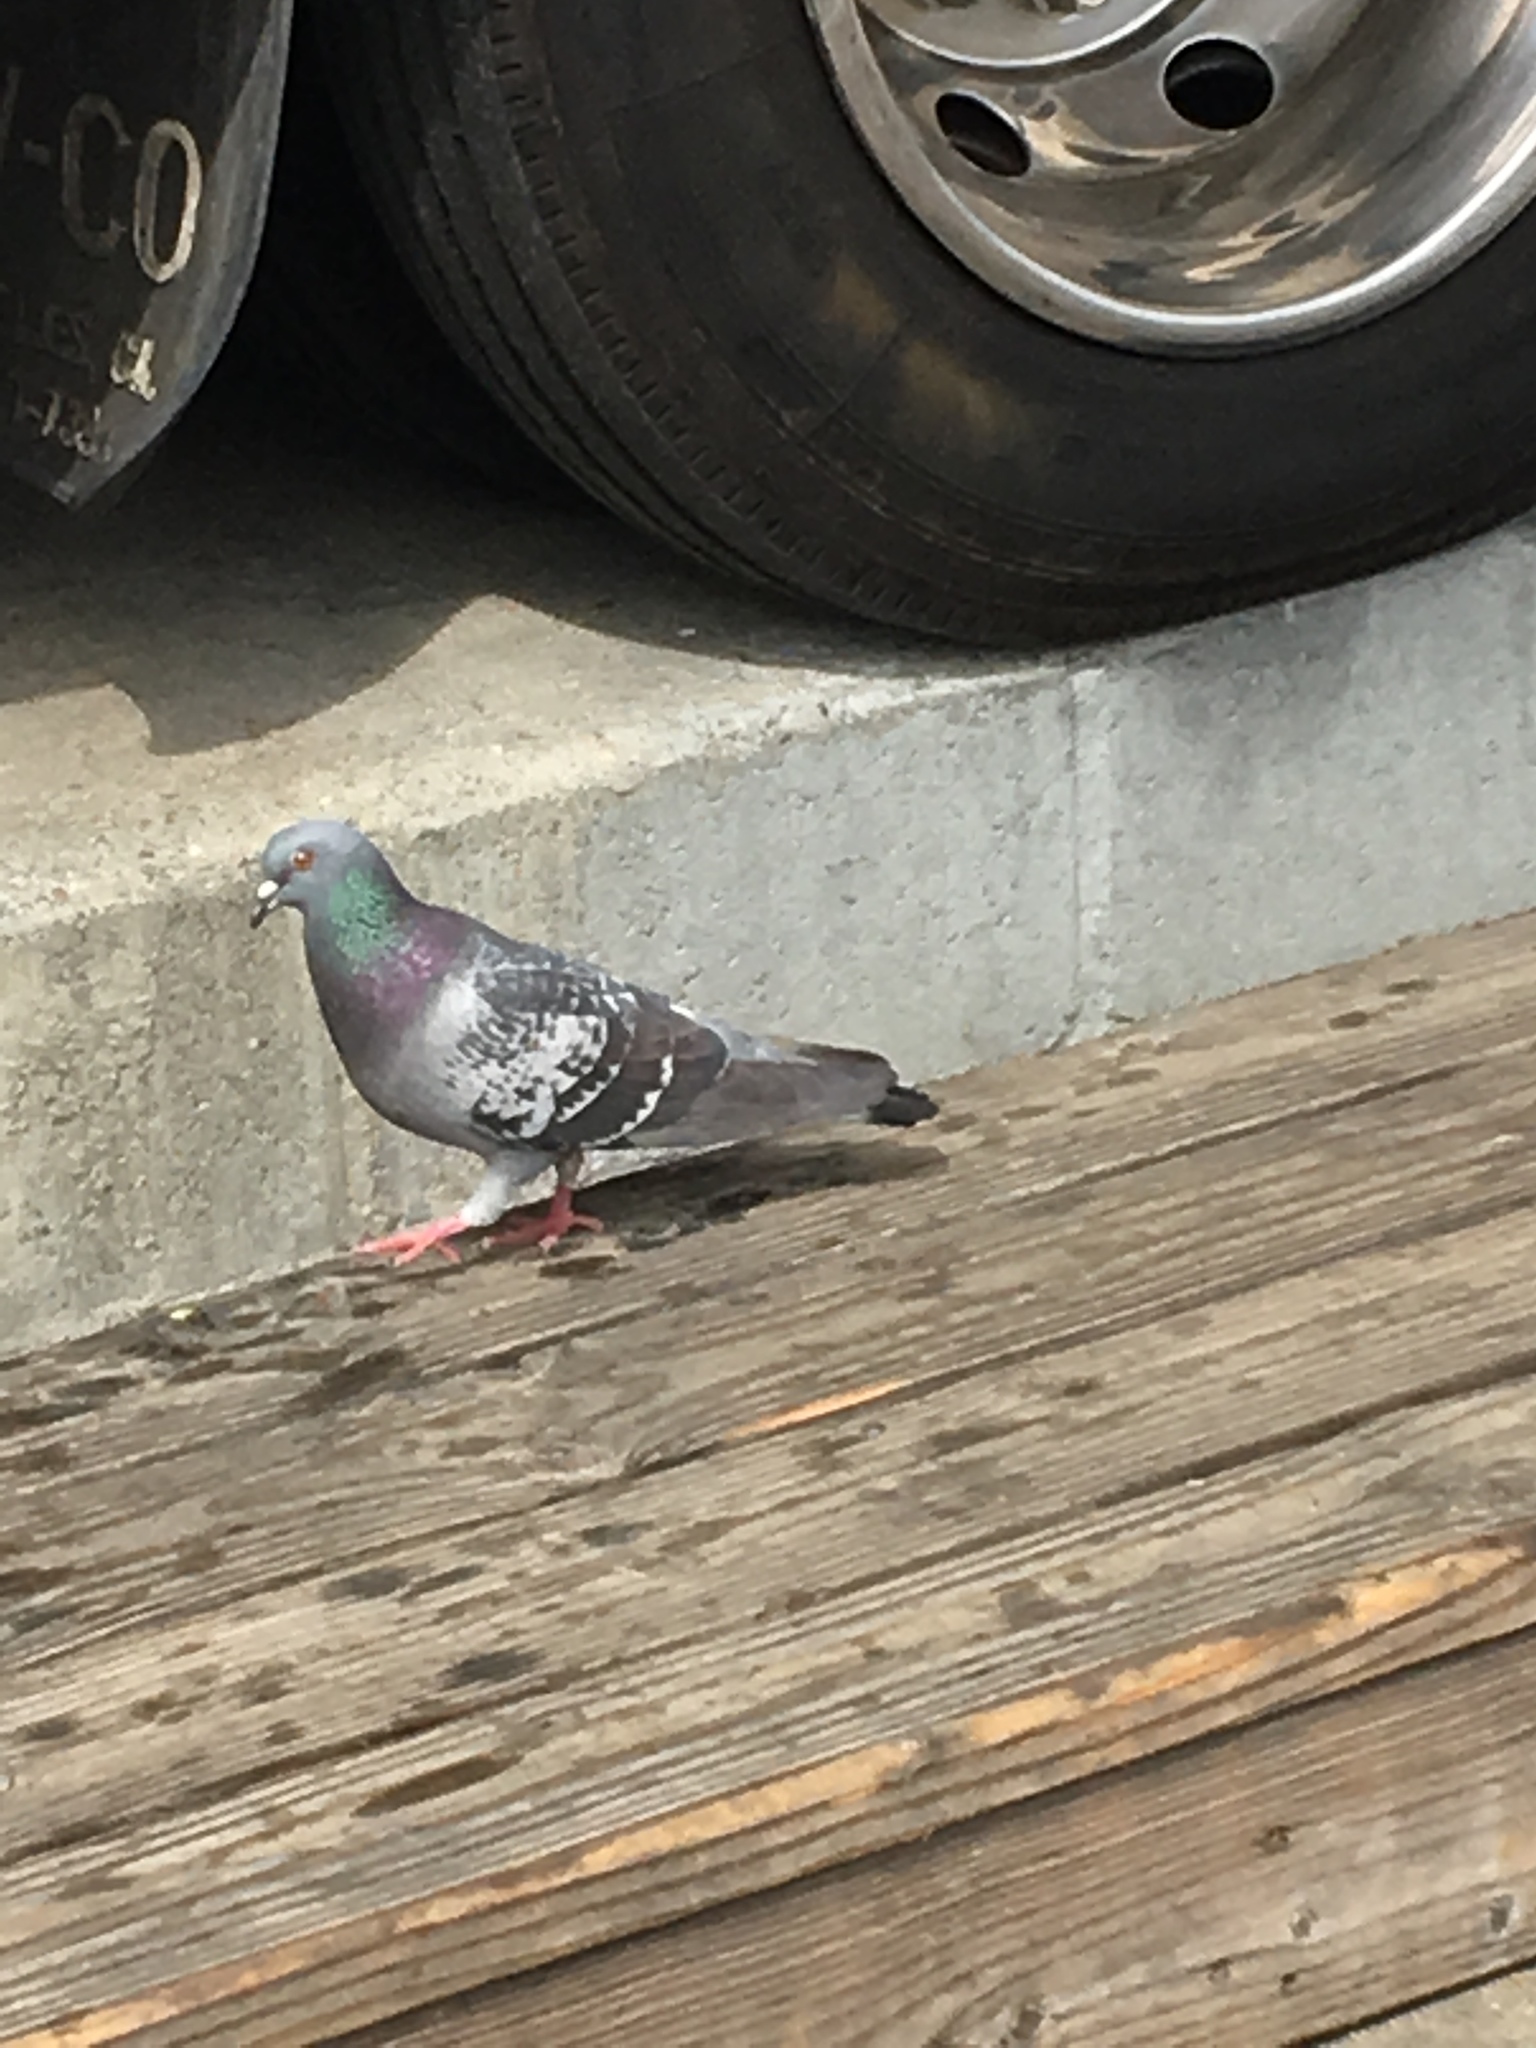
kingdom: Animalia
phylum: Chordata
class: Aves
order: Columbiformes
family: Columbidae
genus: Columba
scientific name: Columba livia
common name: Rock pigeon
